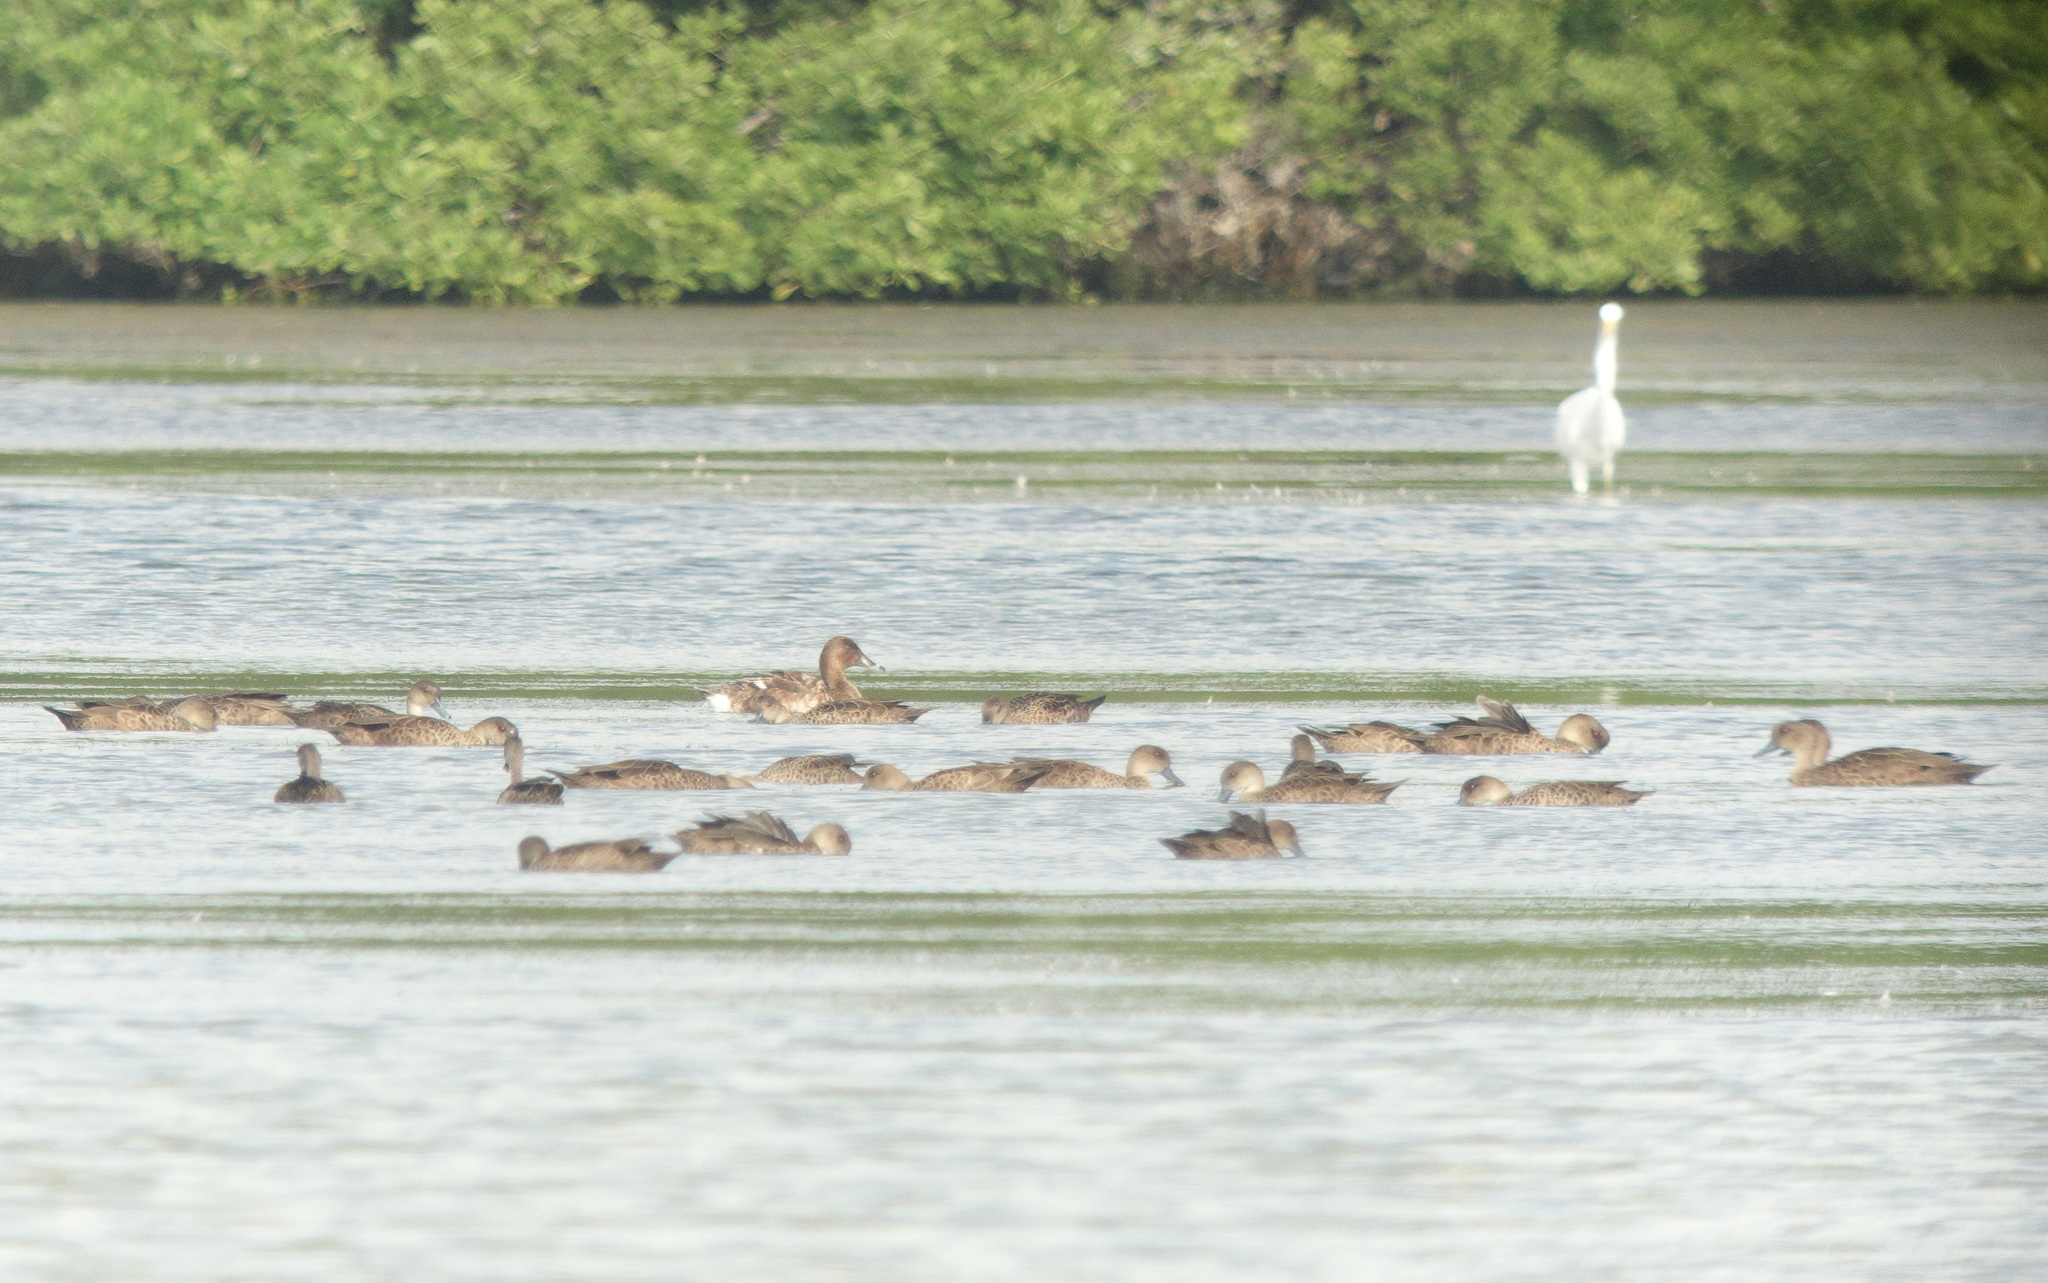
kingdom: Animalia
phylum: Chordata
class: Aves
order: Anseriformes
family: Anatidae
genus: Anas
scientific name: Anas gibberifrons
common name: Sunda teal
